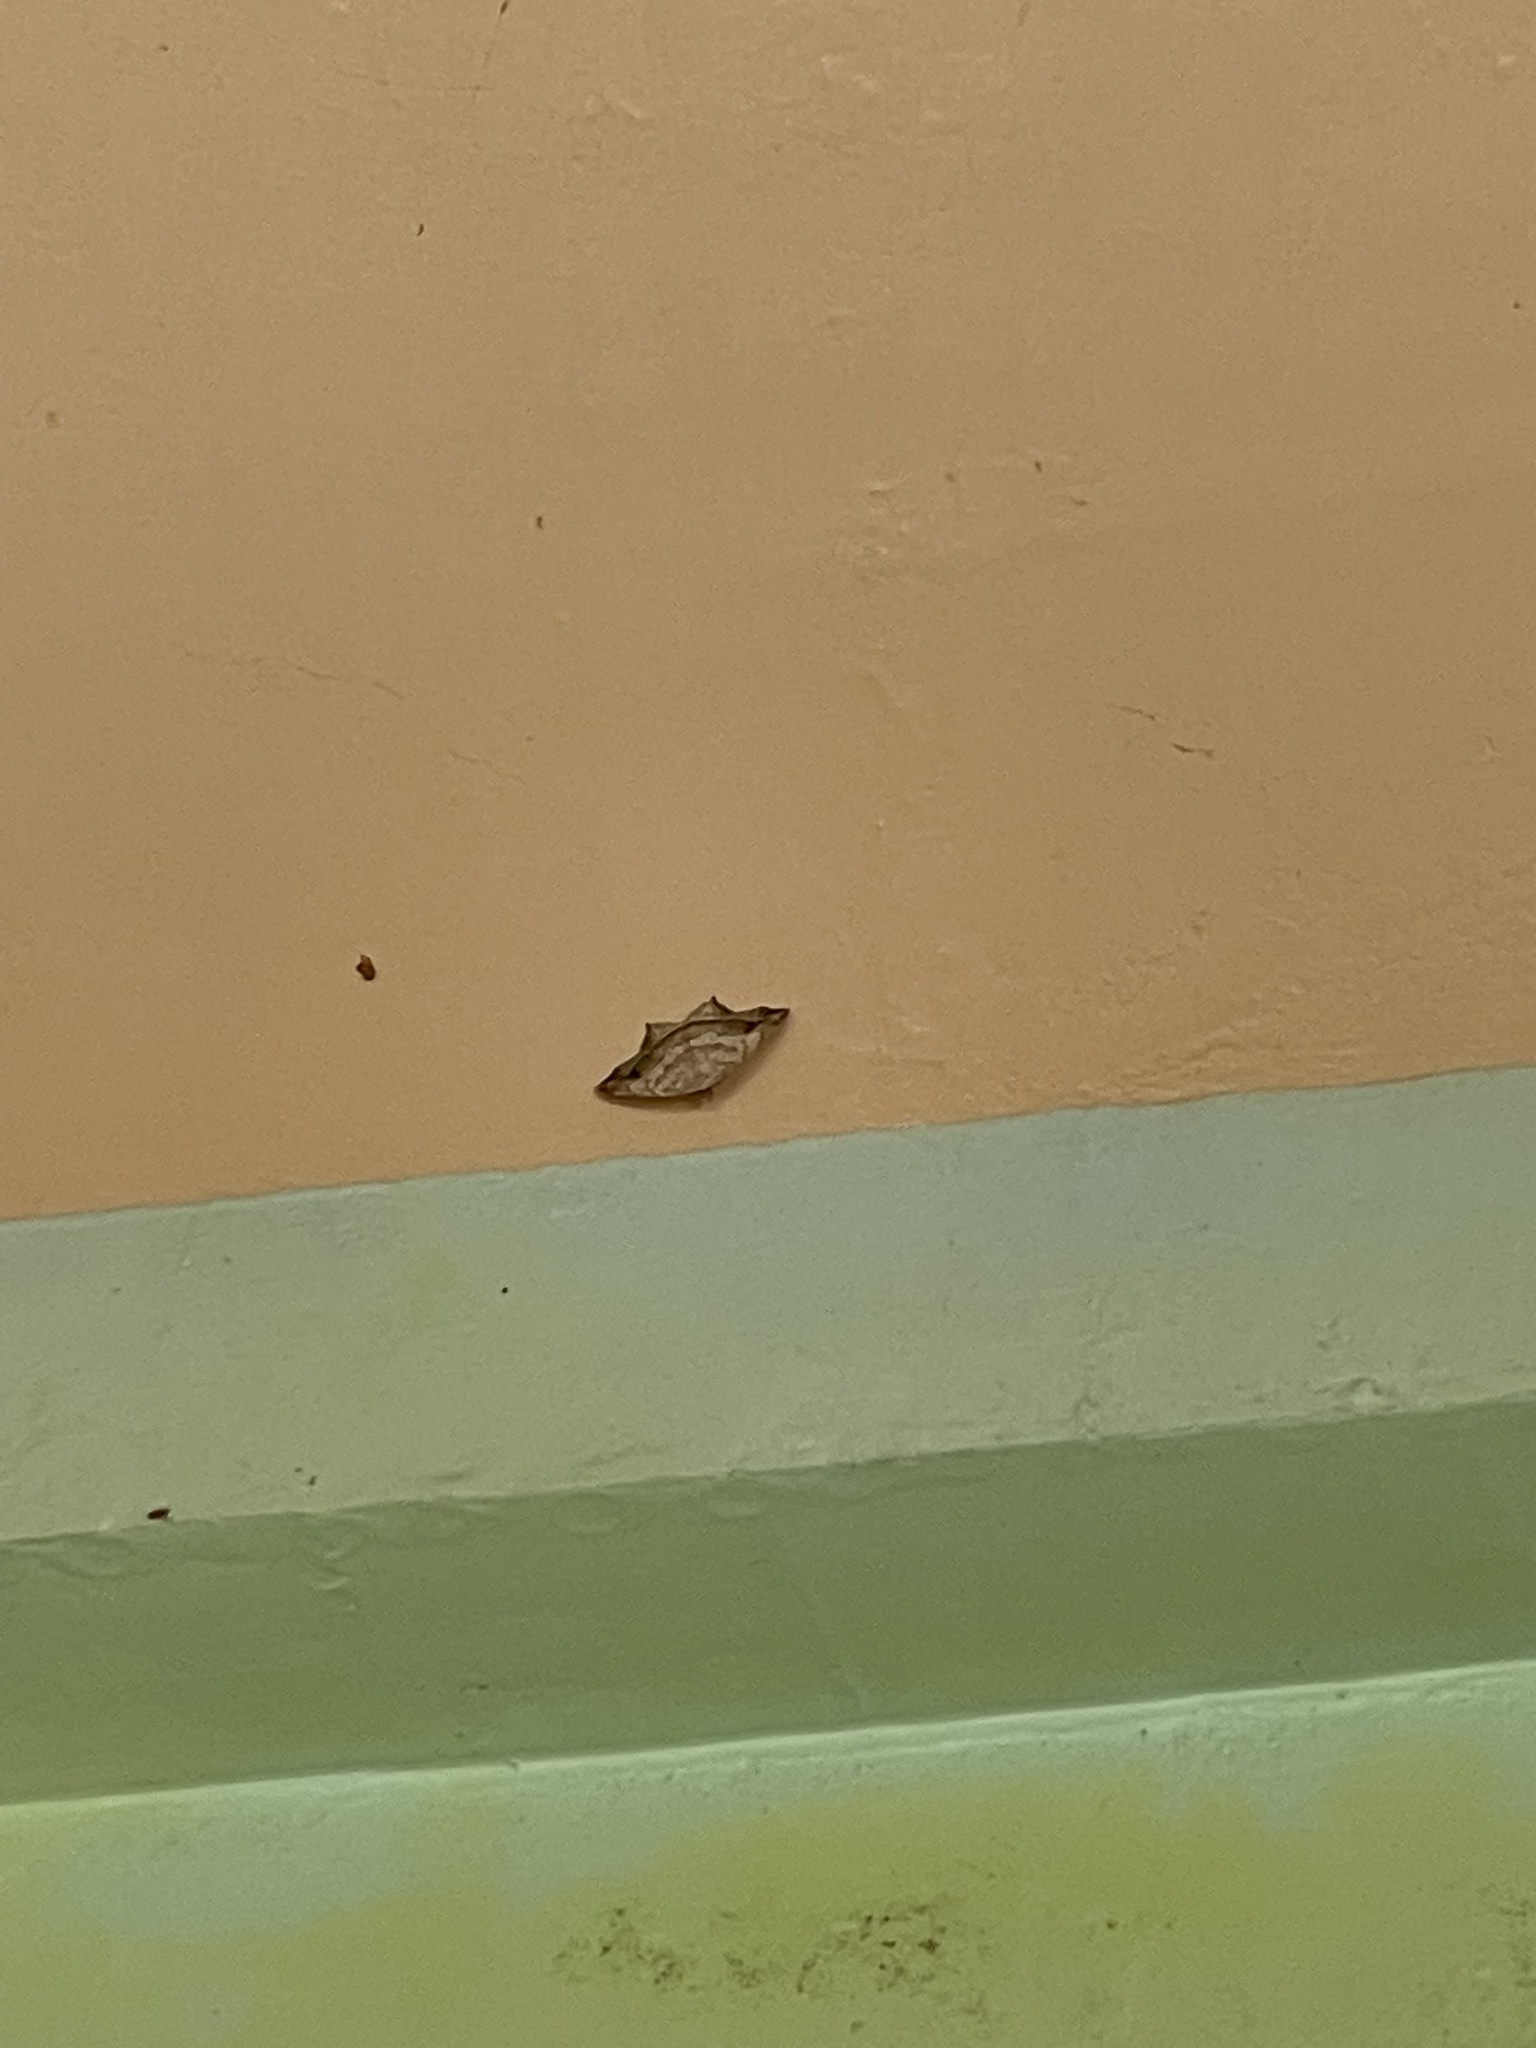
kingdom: Animalia
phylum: Arthropoda
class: Insecta
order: Lepidoptera
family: Geometridae
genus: Oxymacaria
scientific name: Oxymacaria temeraria
